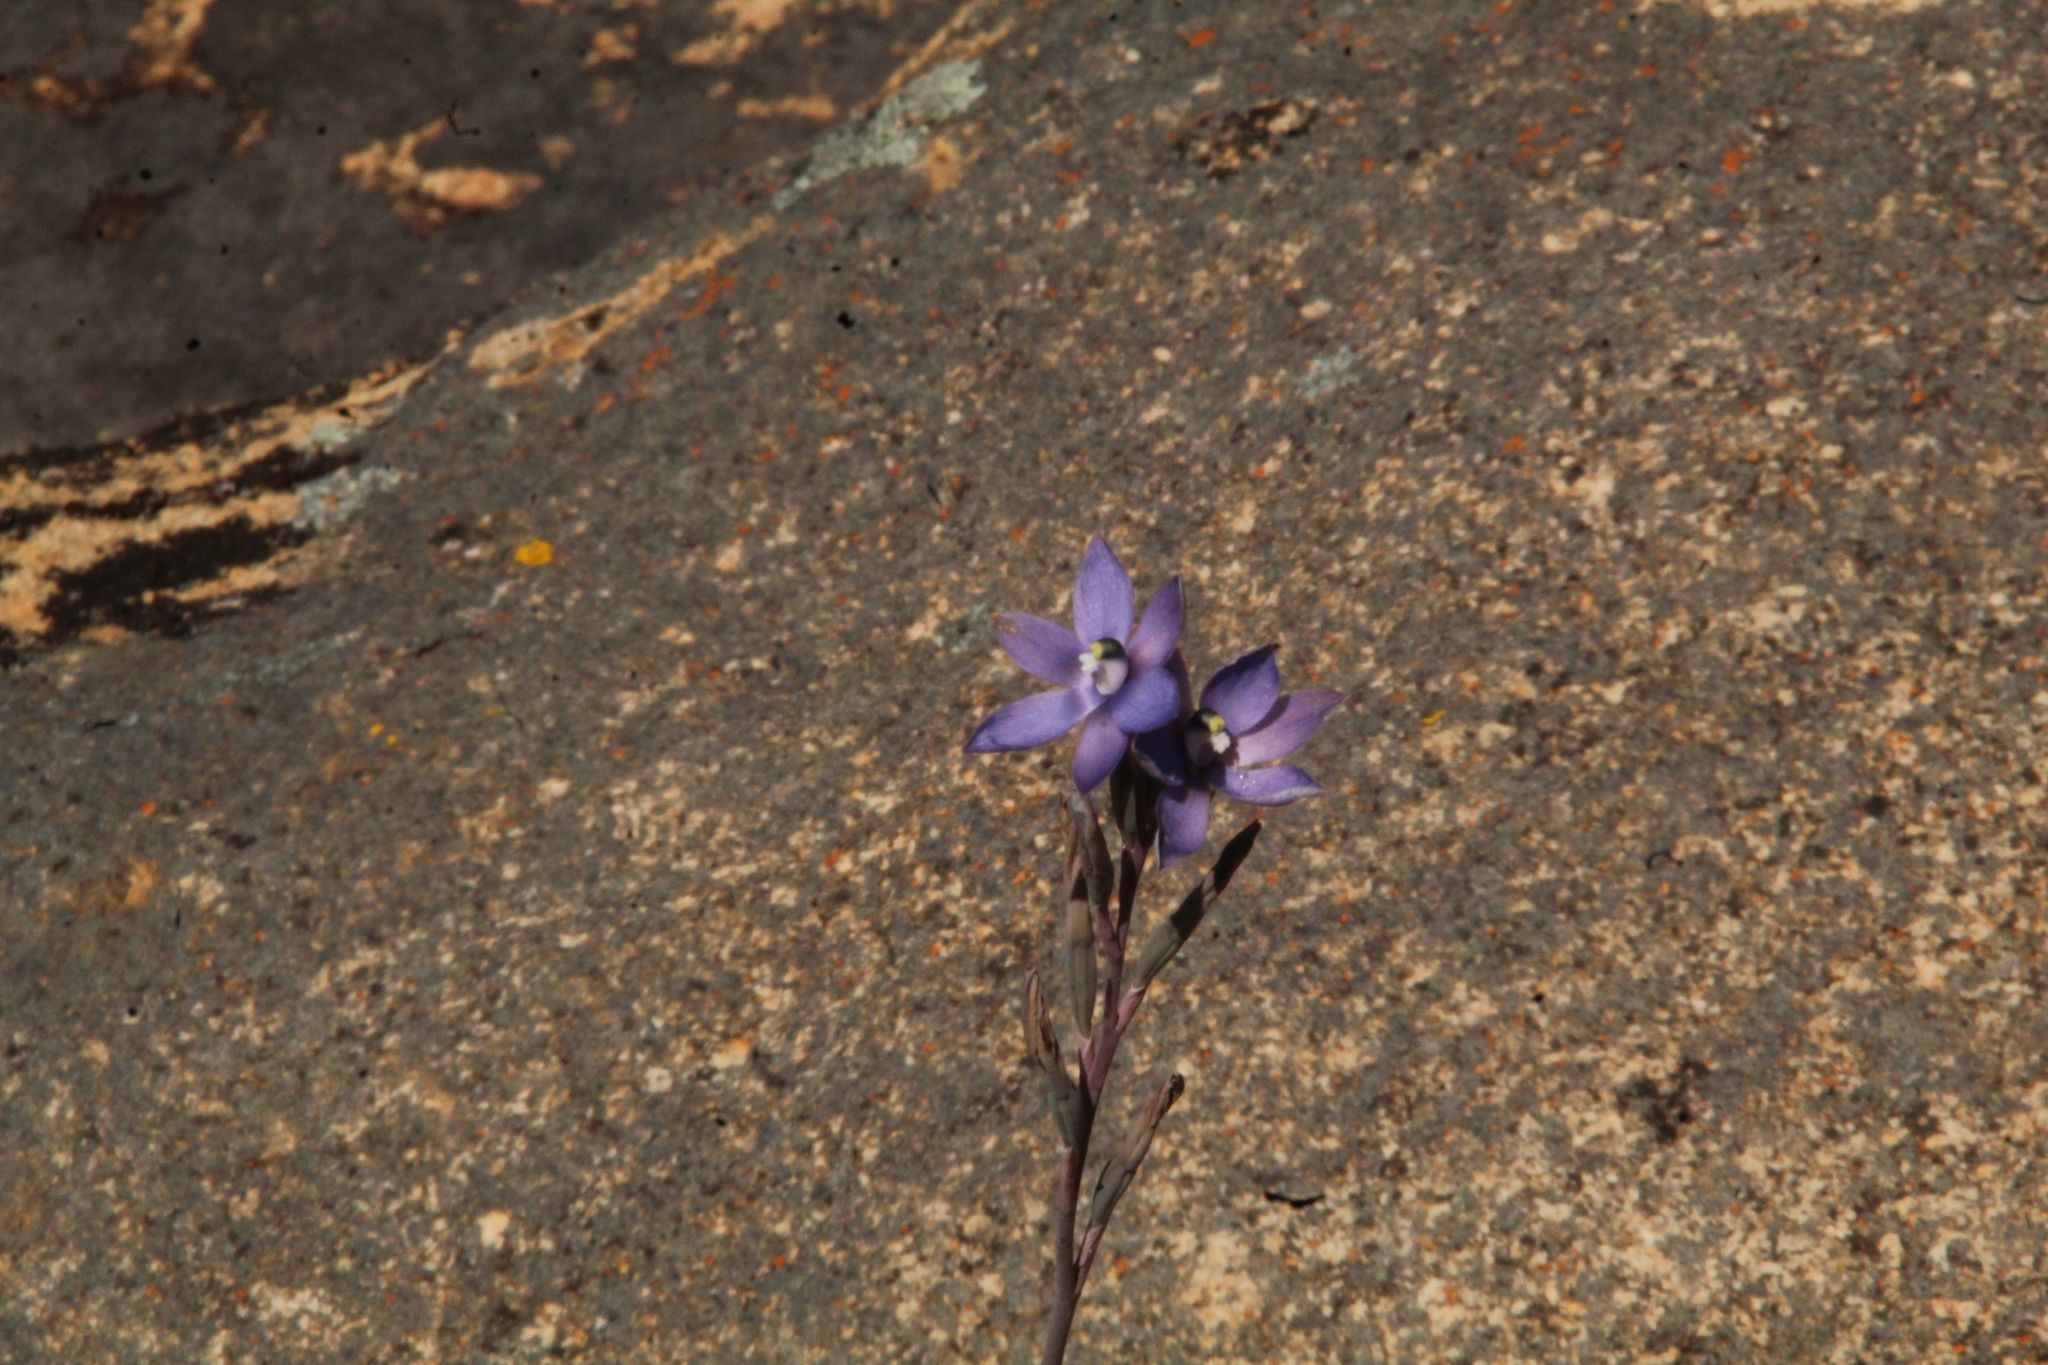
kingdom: Plantae
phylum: Tracheophyta
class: Liliopsida
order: Asparagales
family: Orchidaceae
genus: Thelymitra
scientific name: Thelymitra petrophila
